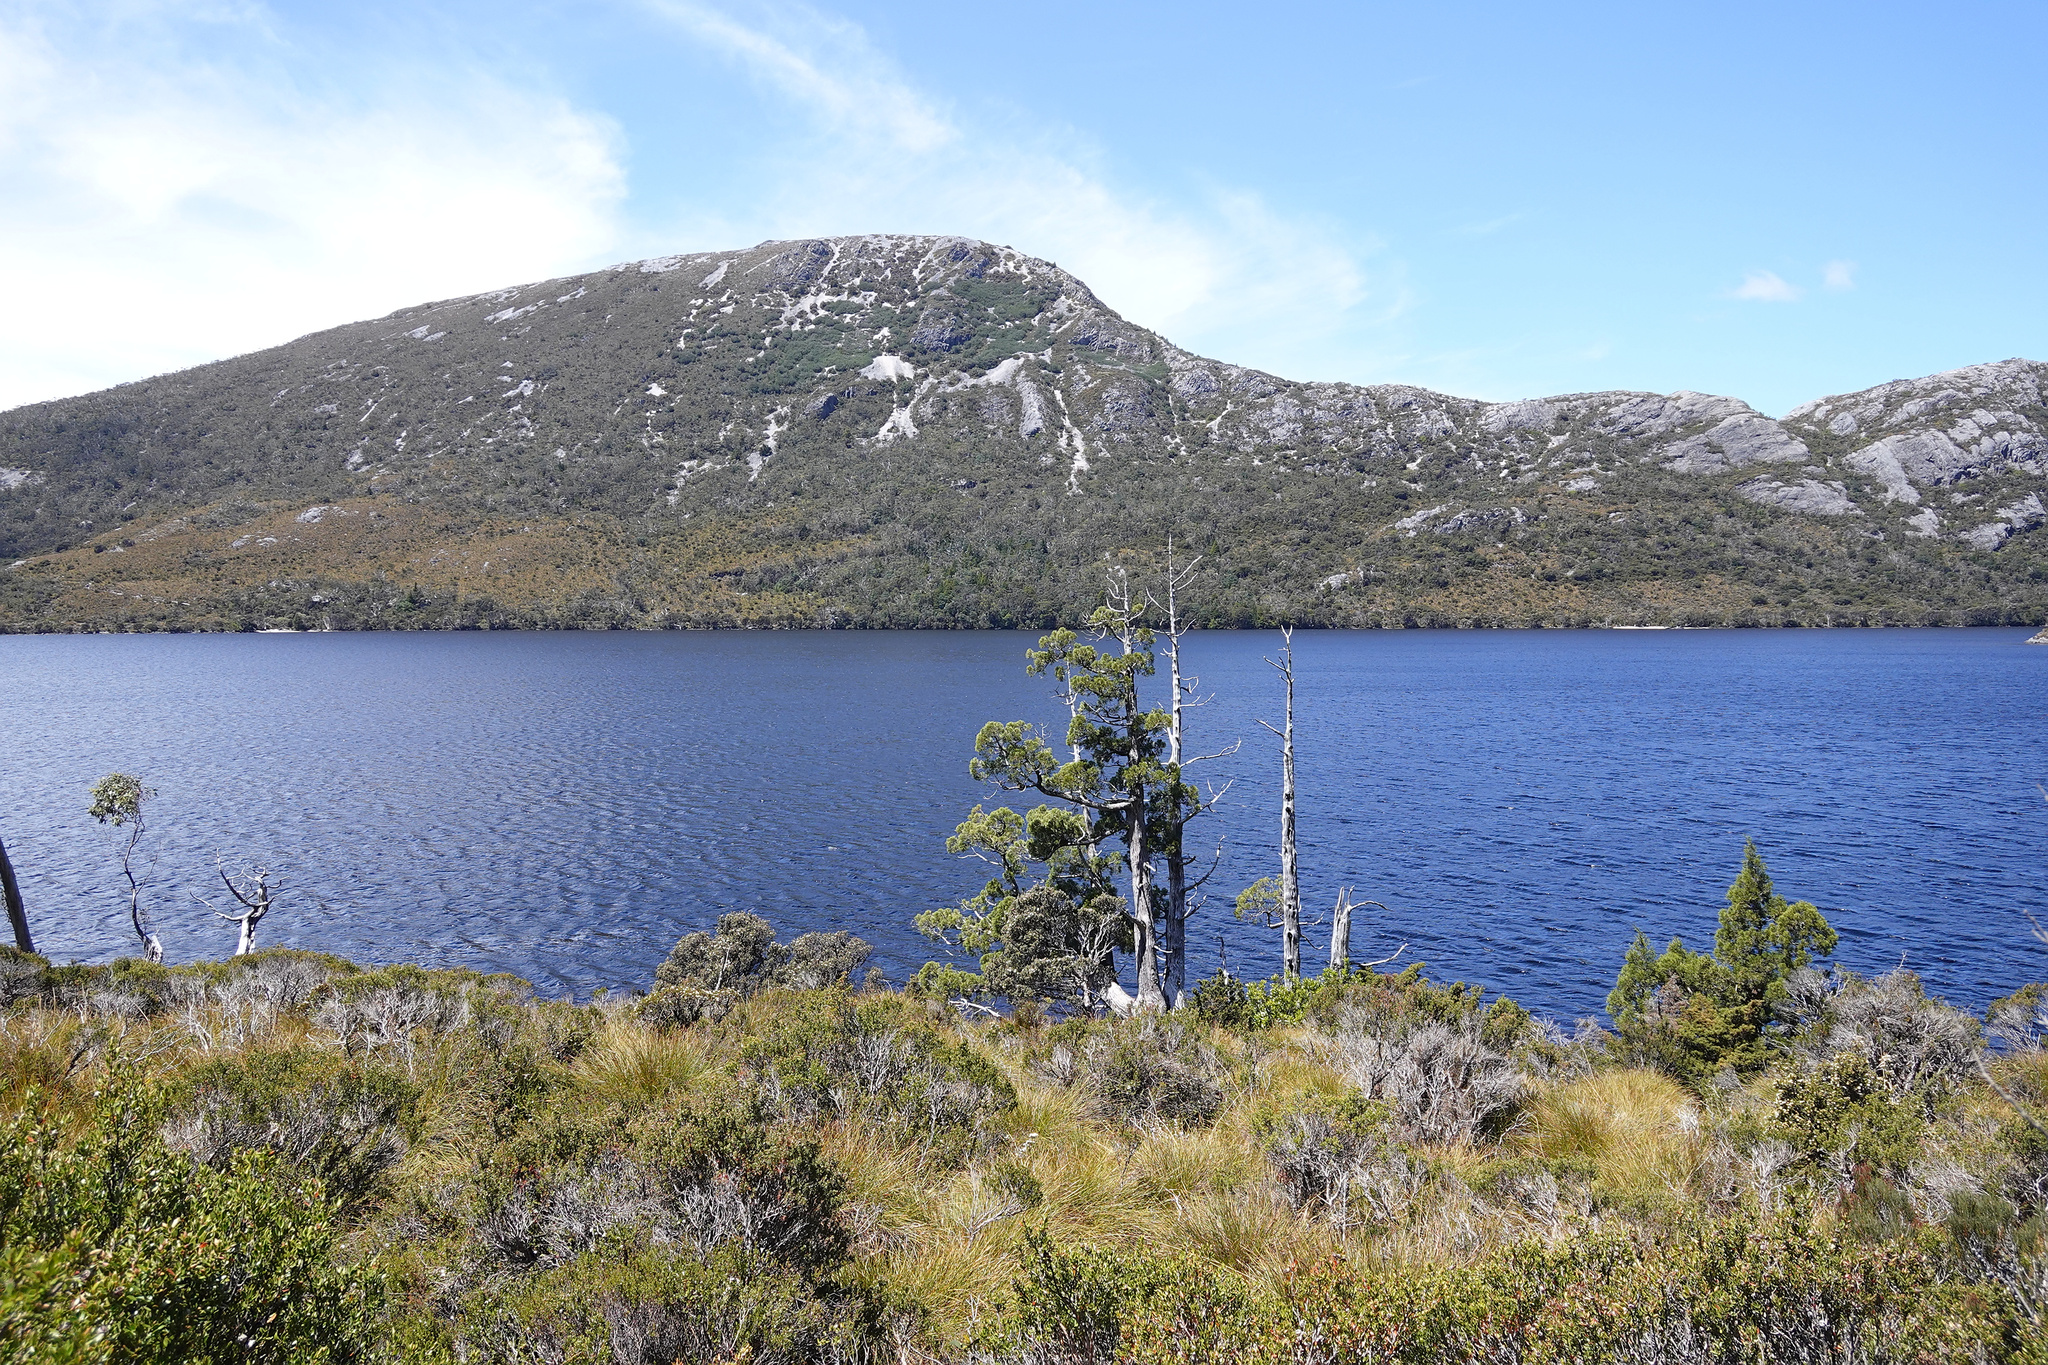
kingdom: Plantae
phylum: Tracheophyta
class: Pinopsida
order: Pinales
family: Cupressaceae
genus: Athrotaxis
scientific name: Athrotaxis cupressoides
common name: Tasmanian pencil pine
